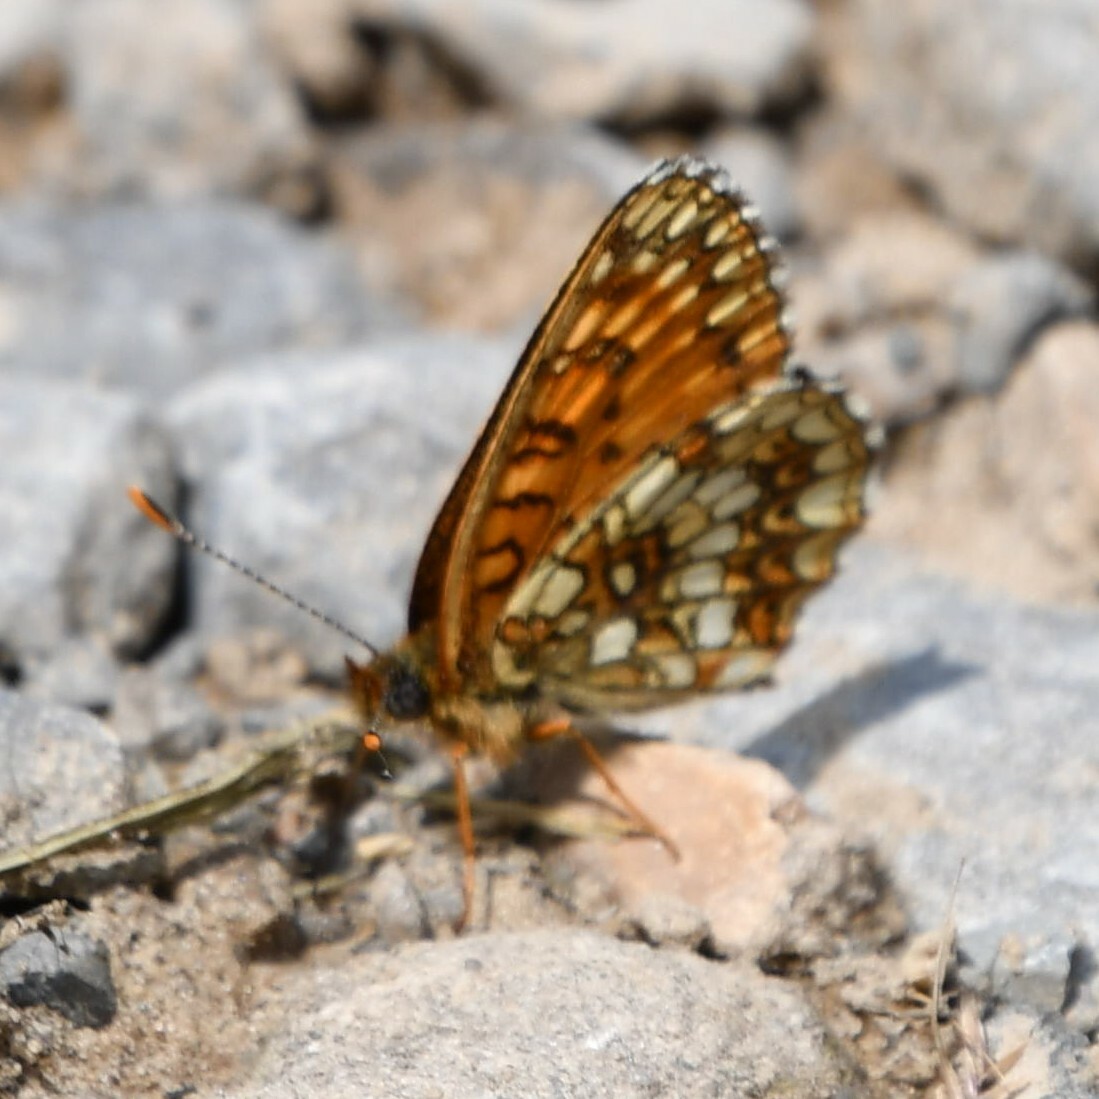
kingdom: Animalia
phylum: Arthropoda
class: Insecta
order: Lepidoptera
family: Nymphalidae
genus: Melitaea
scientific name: Melitaea diamina
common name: False heath fritillary
